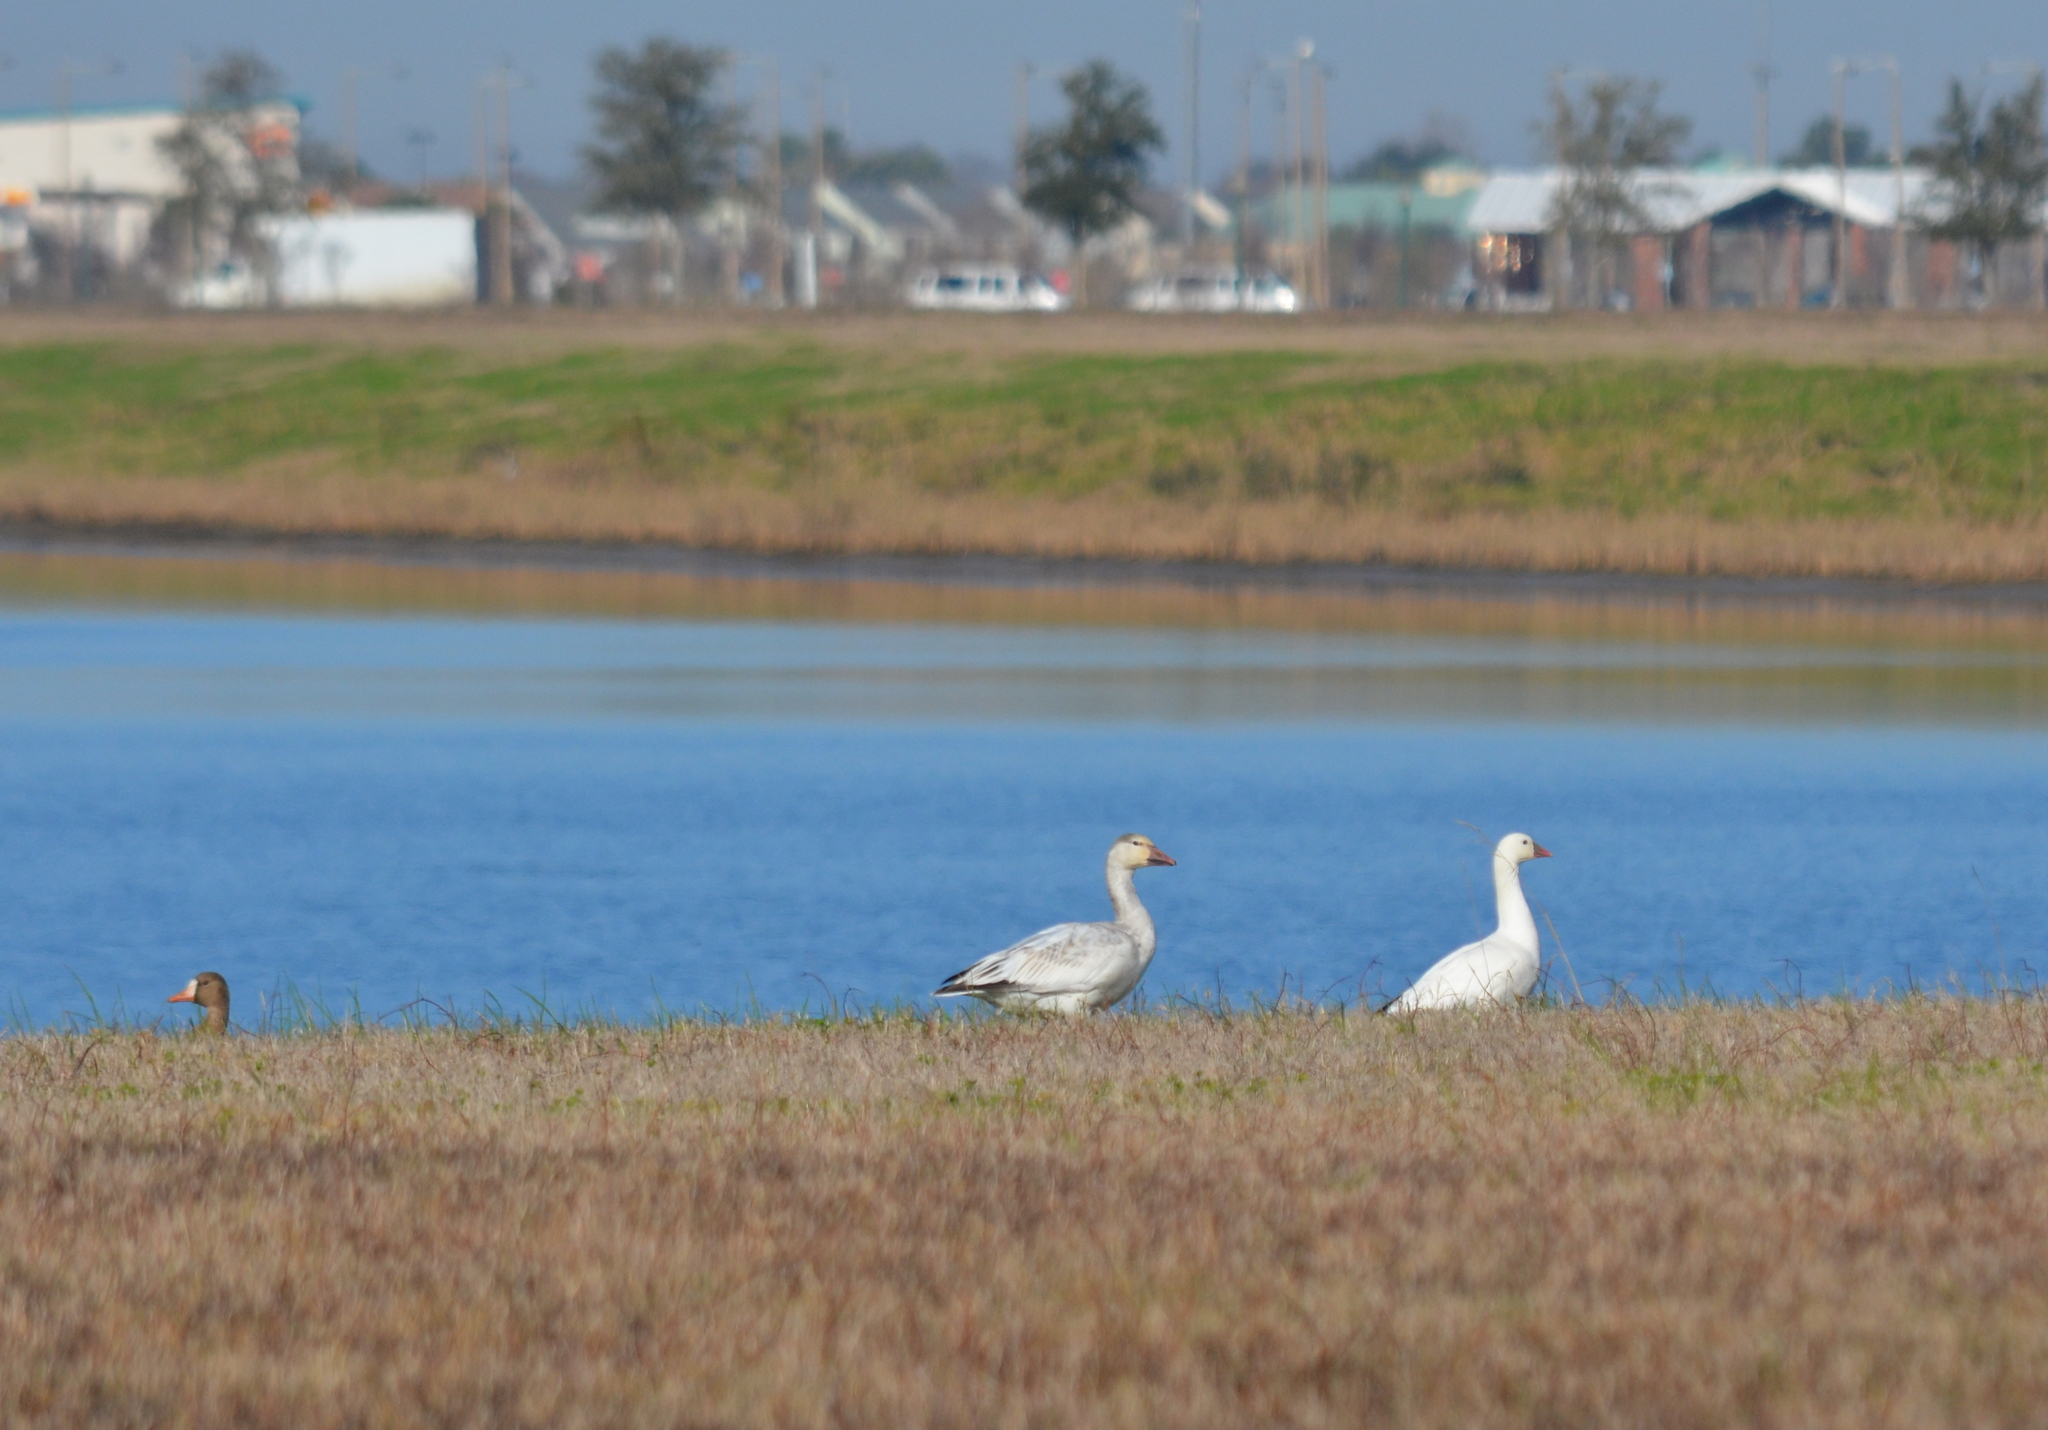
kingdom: Animalia
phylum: Chordata
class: Aves
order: Anseriformes
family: Anatidae
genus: Anser
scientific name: Anser caerulescens
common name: Snow goose
